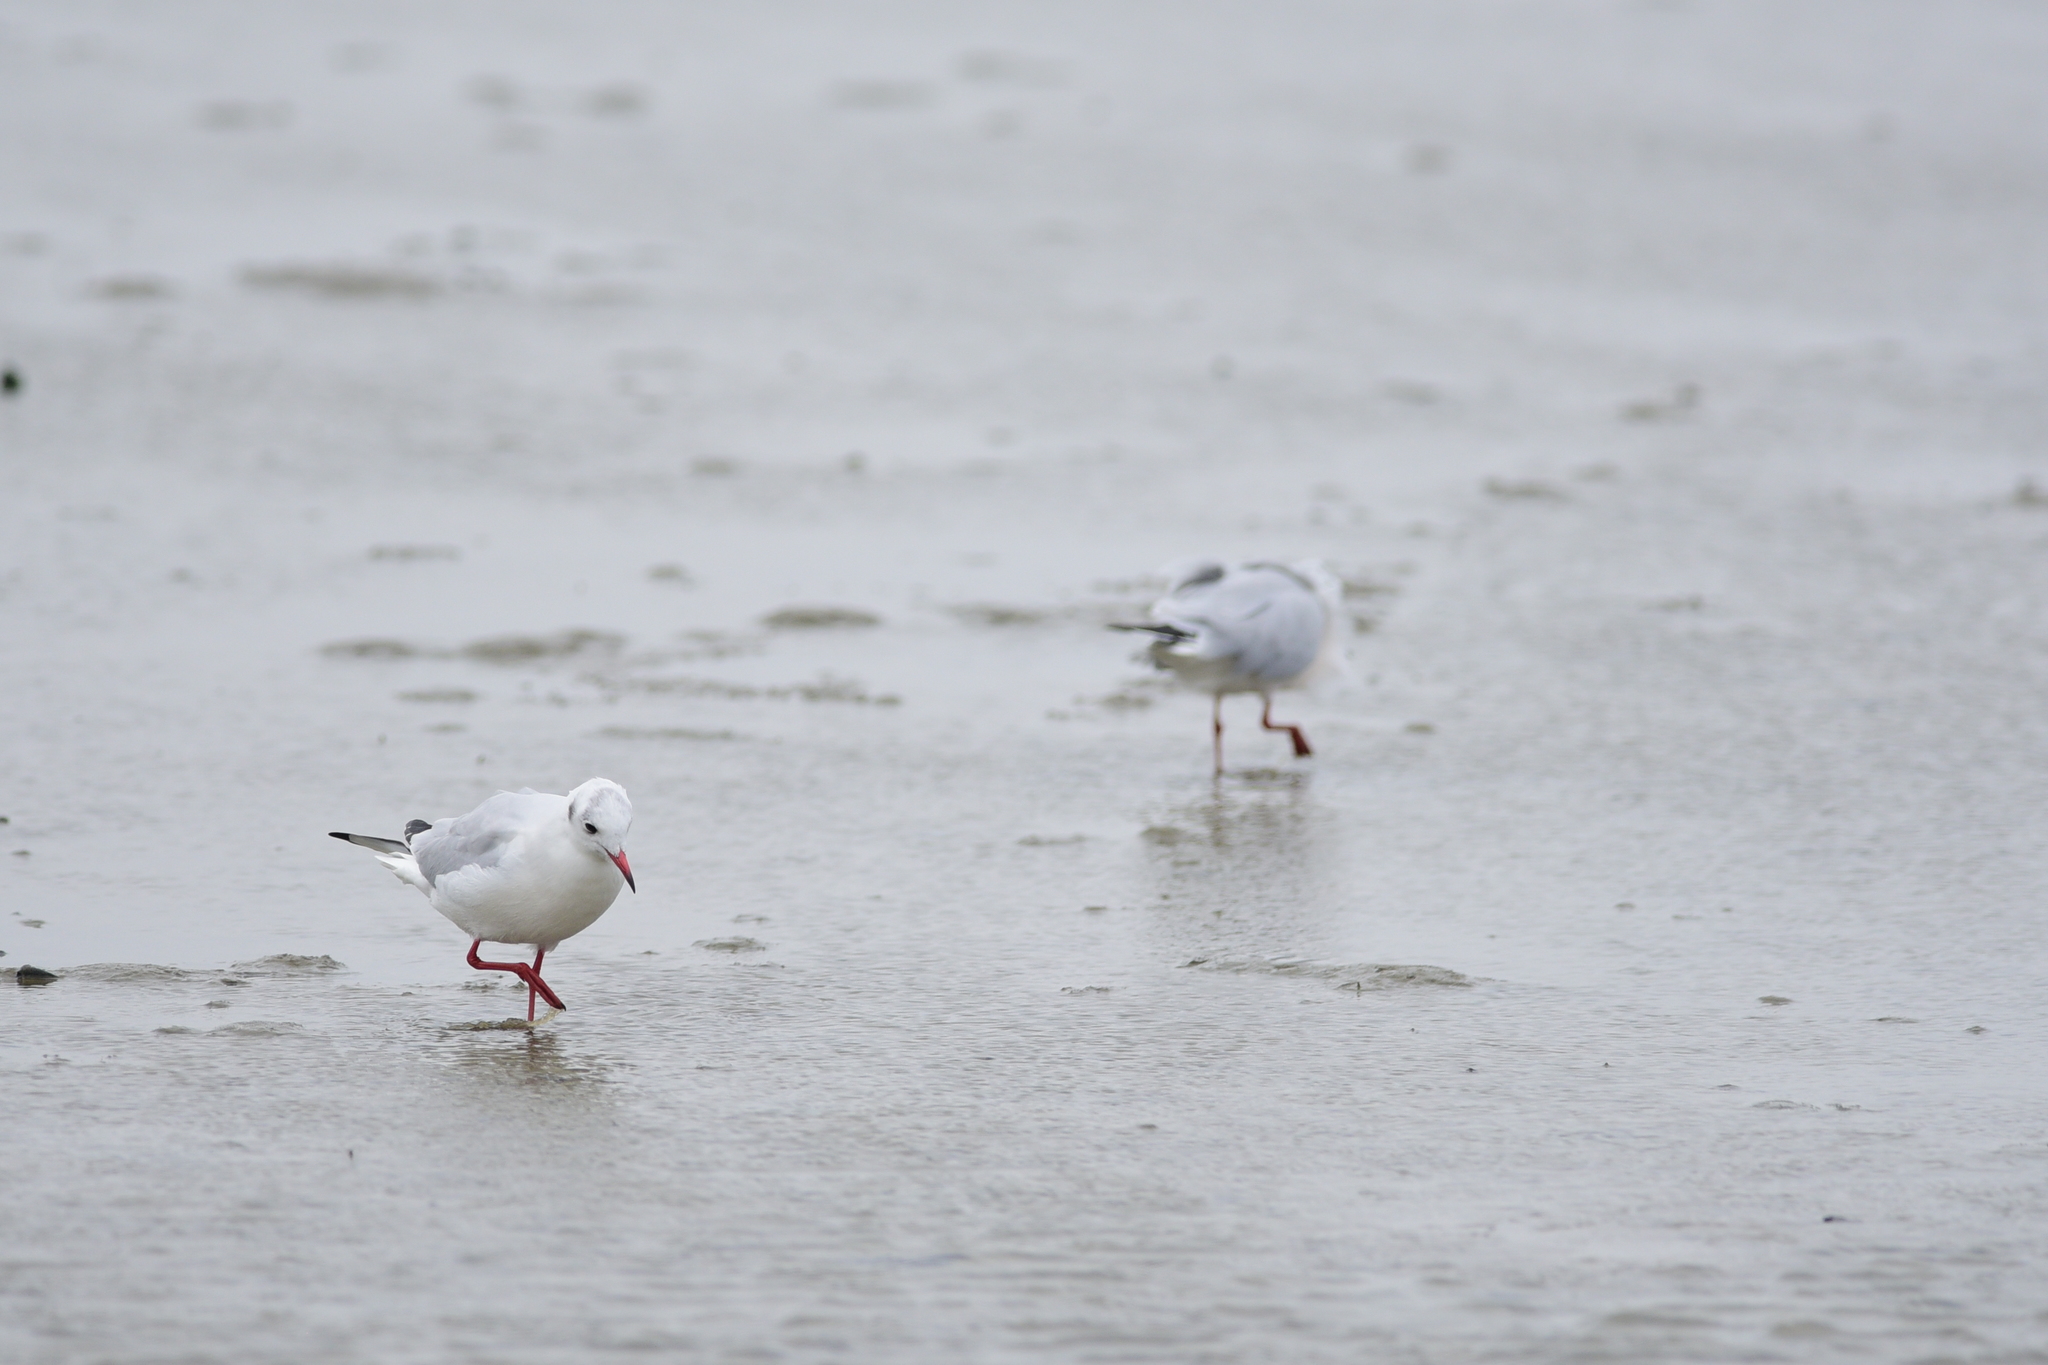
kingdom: Animalia
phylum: Chordata
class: Aves
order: Charadriiformes
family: Laridae
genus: Chroicocephalus
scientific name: Chroicocephalus ridibundus
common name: Black-headed gull
